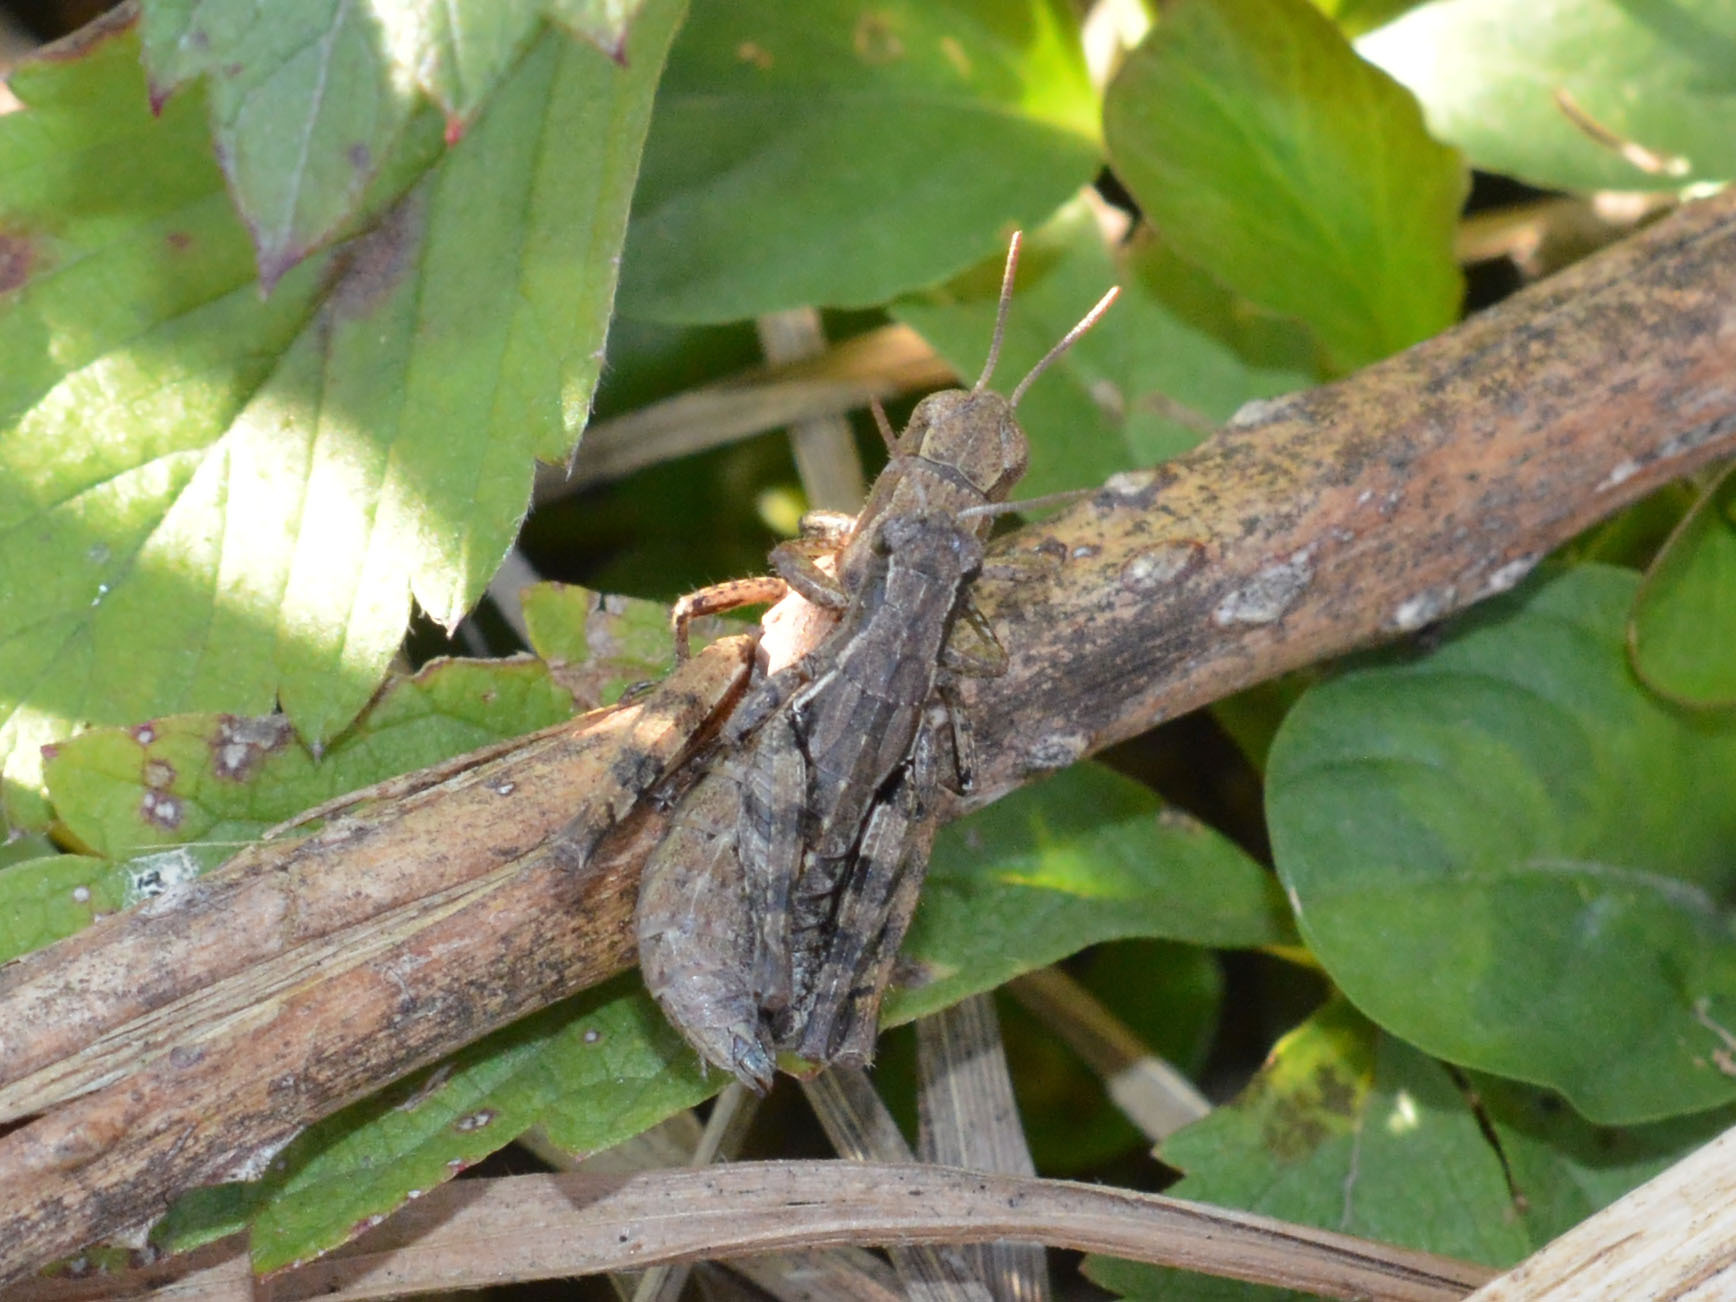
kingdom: Animalia
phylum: Arthropoda
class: Insecta
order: Orthoptera
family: Acrididae
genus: Pezotettix
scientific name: Pezotettix giornae
